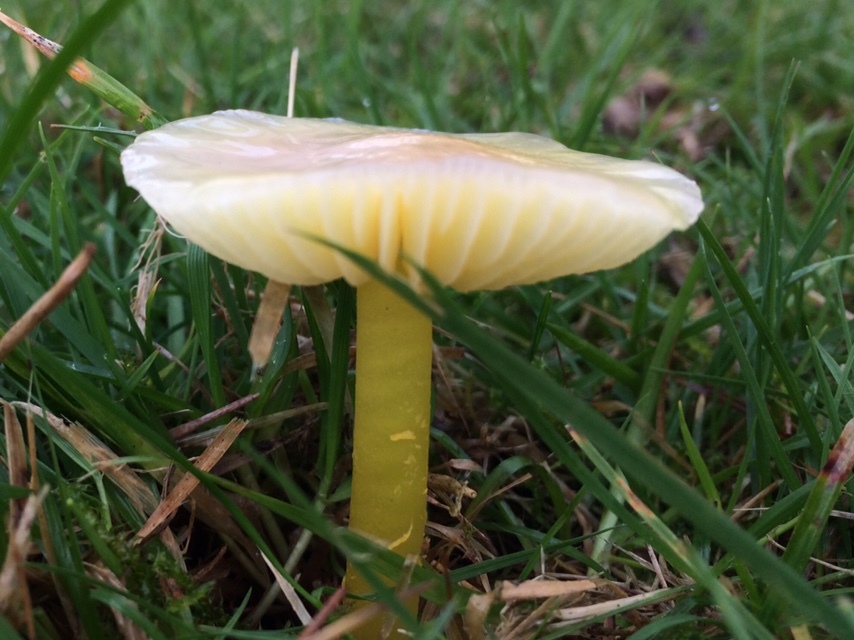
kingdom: Fungi
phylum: Basidiomycota
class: Agaricomycetes
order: Agaricales
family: Hygrophoraceae
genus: Hygrocybe
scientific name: Hygrocybe chlorophana
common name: Golden waxcap
